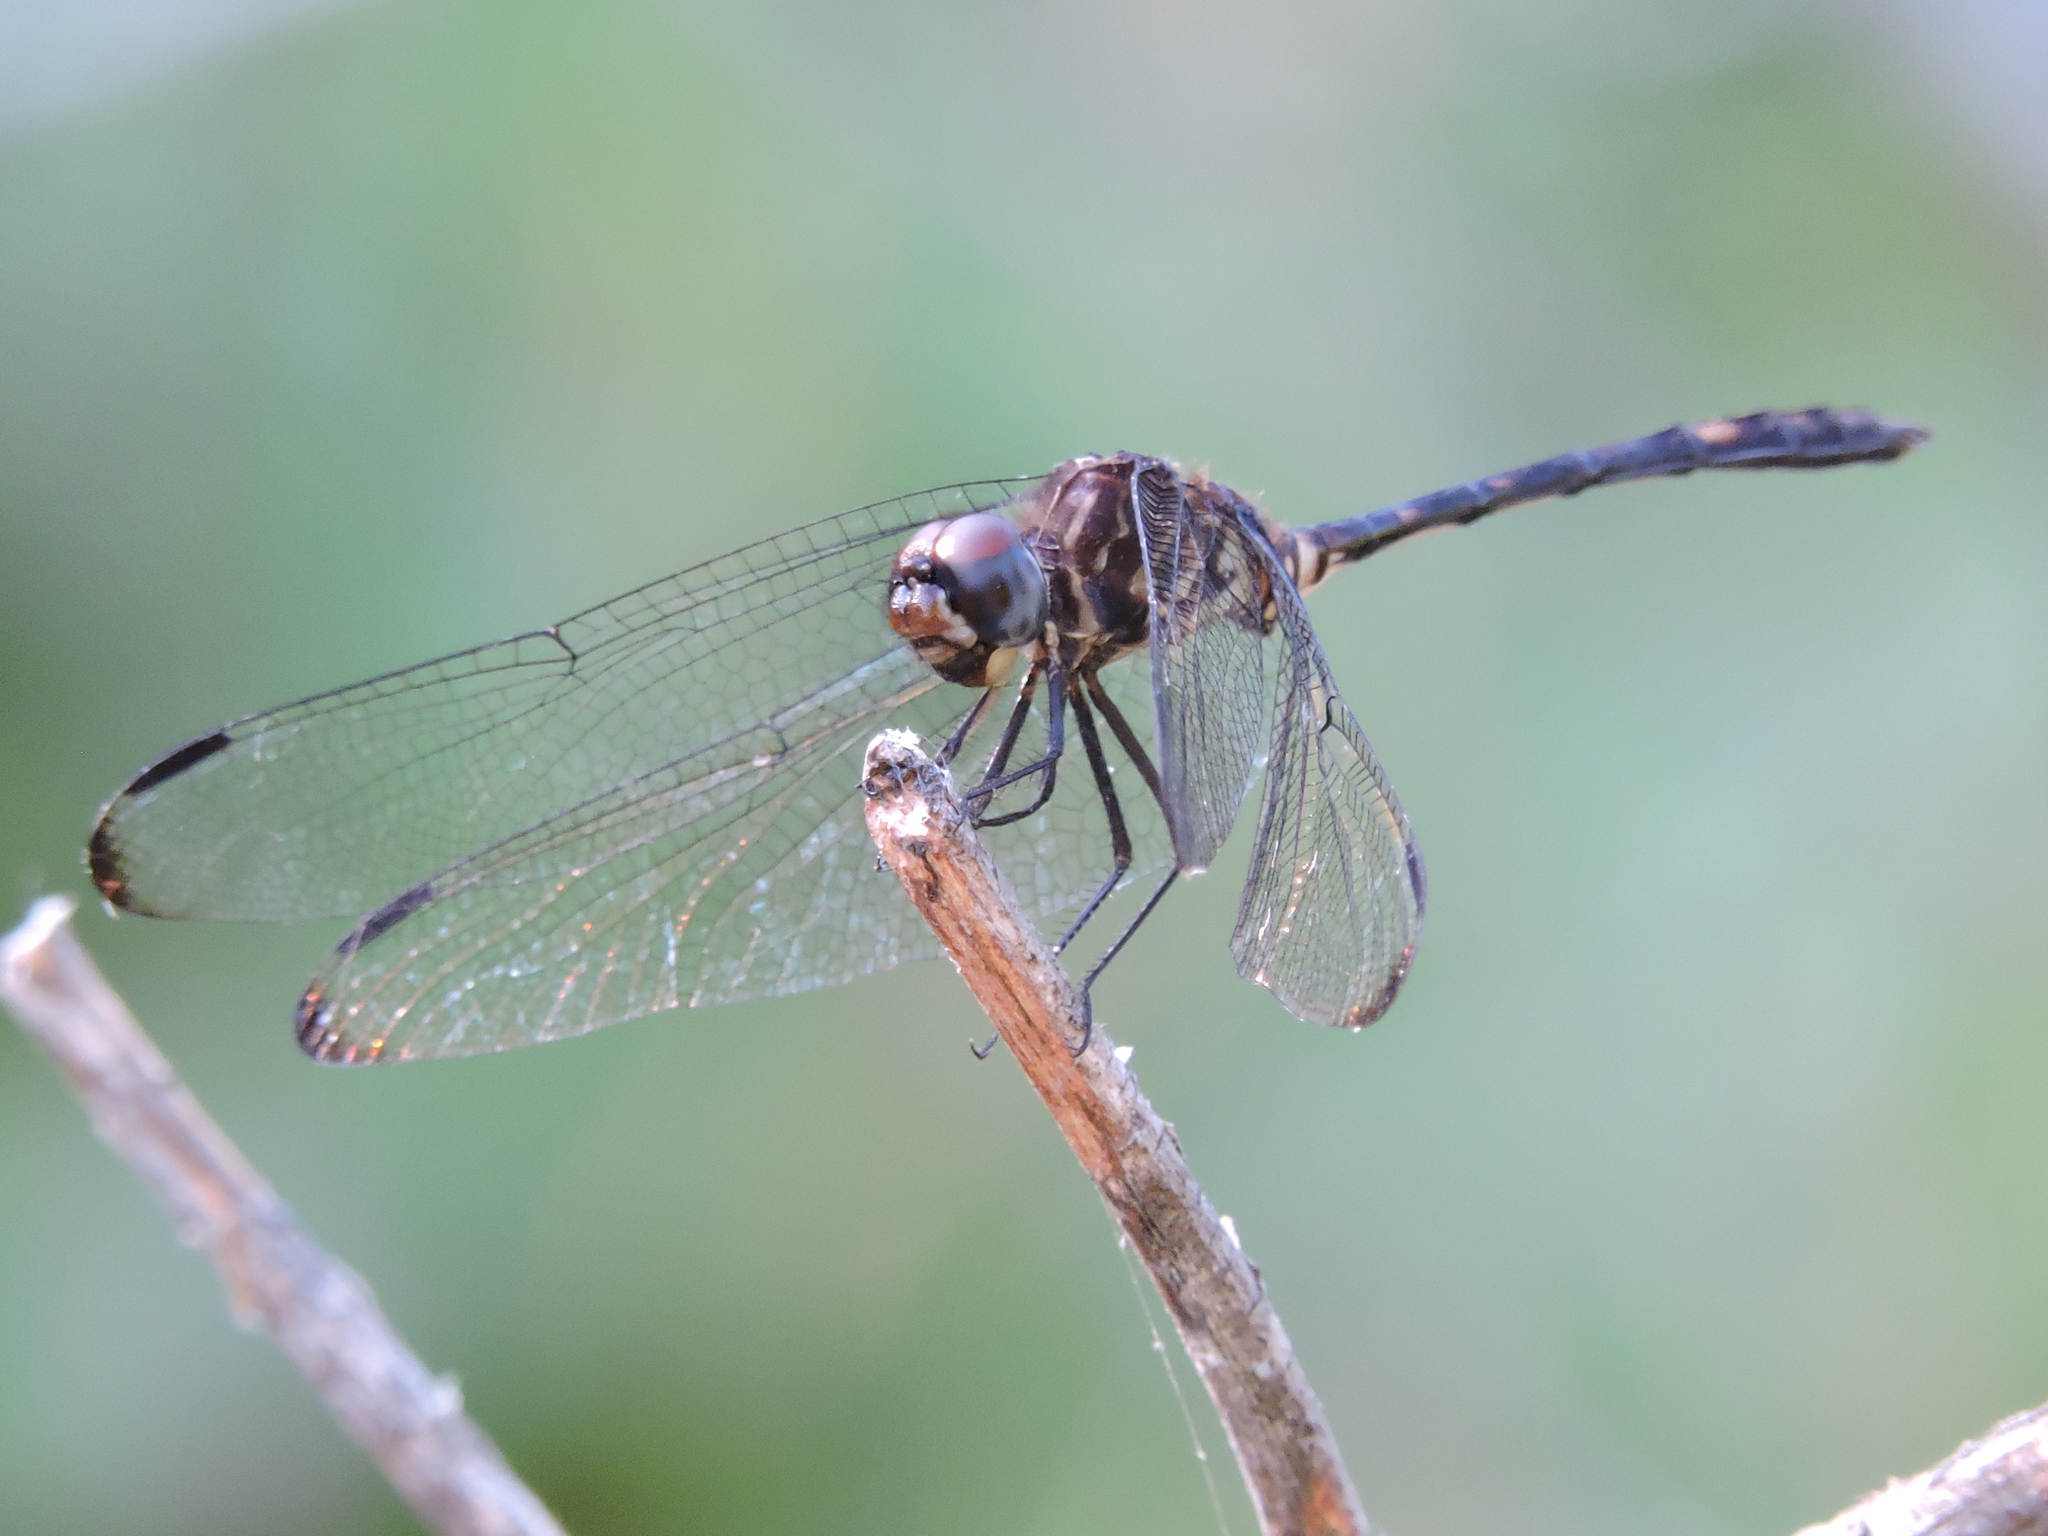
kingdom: Animalia
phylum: Arthropoda
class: Insecta
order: Odonata
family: Libellulidae
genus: Dythemis
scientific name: Dythemis velox
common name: Swift setwing
